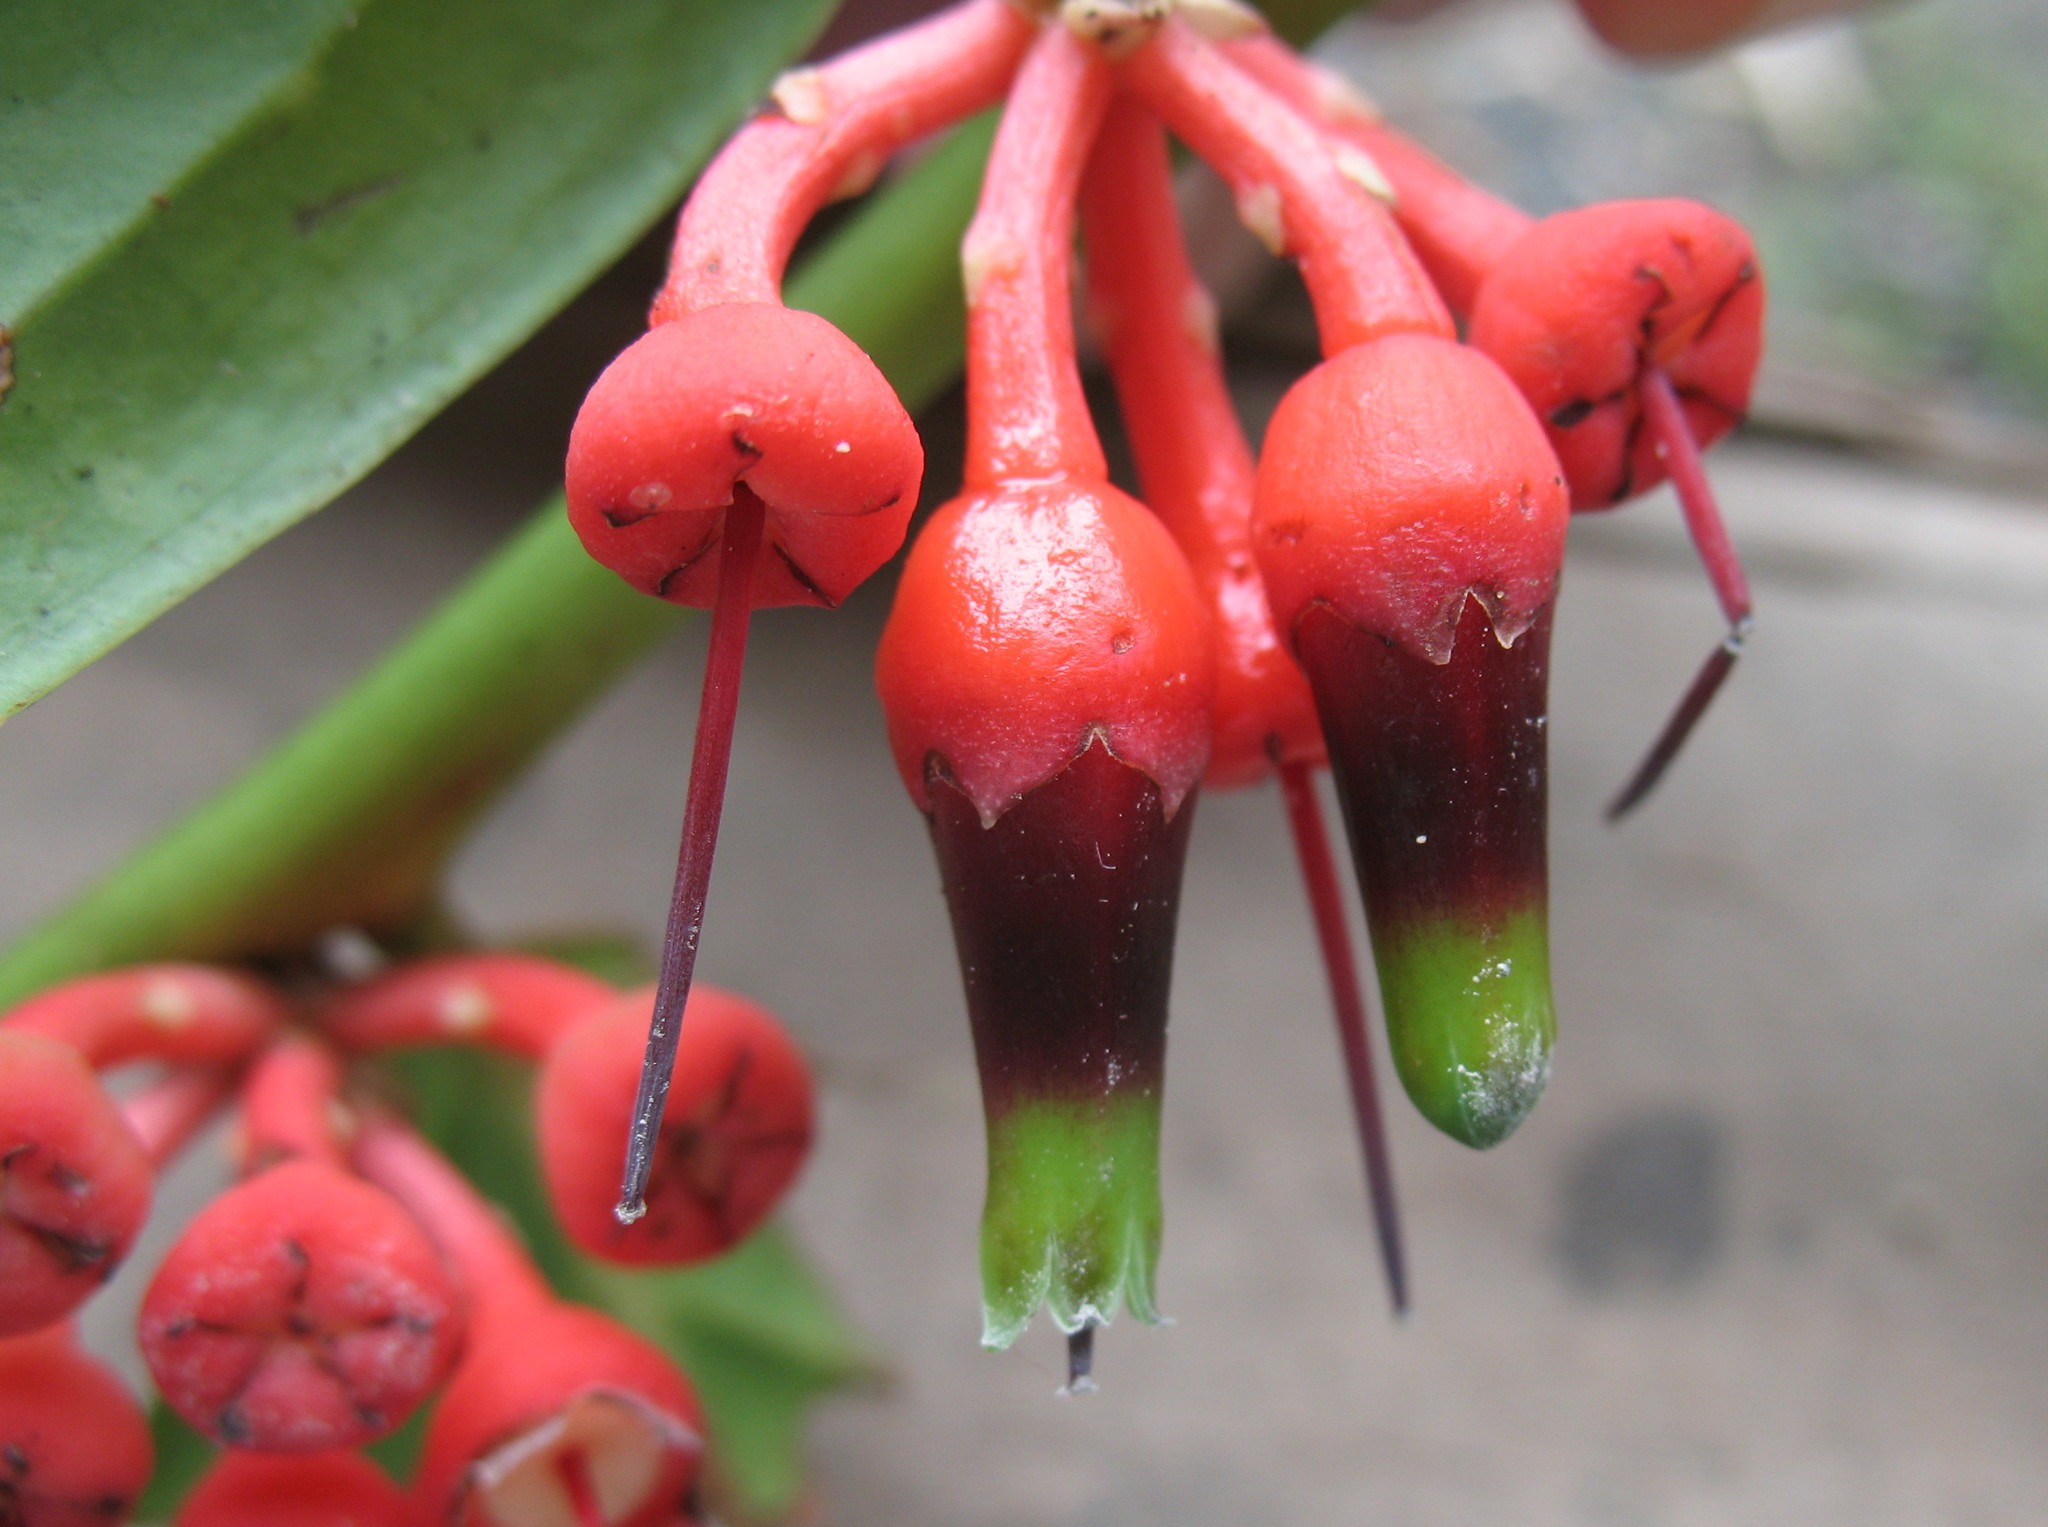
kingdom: Plantae
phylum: Tracheophyta
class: Magnoliopsida
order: Ericales
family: Ericaceae
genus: Psammisia
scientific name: Psammisia sodiroi
